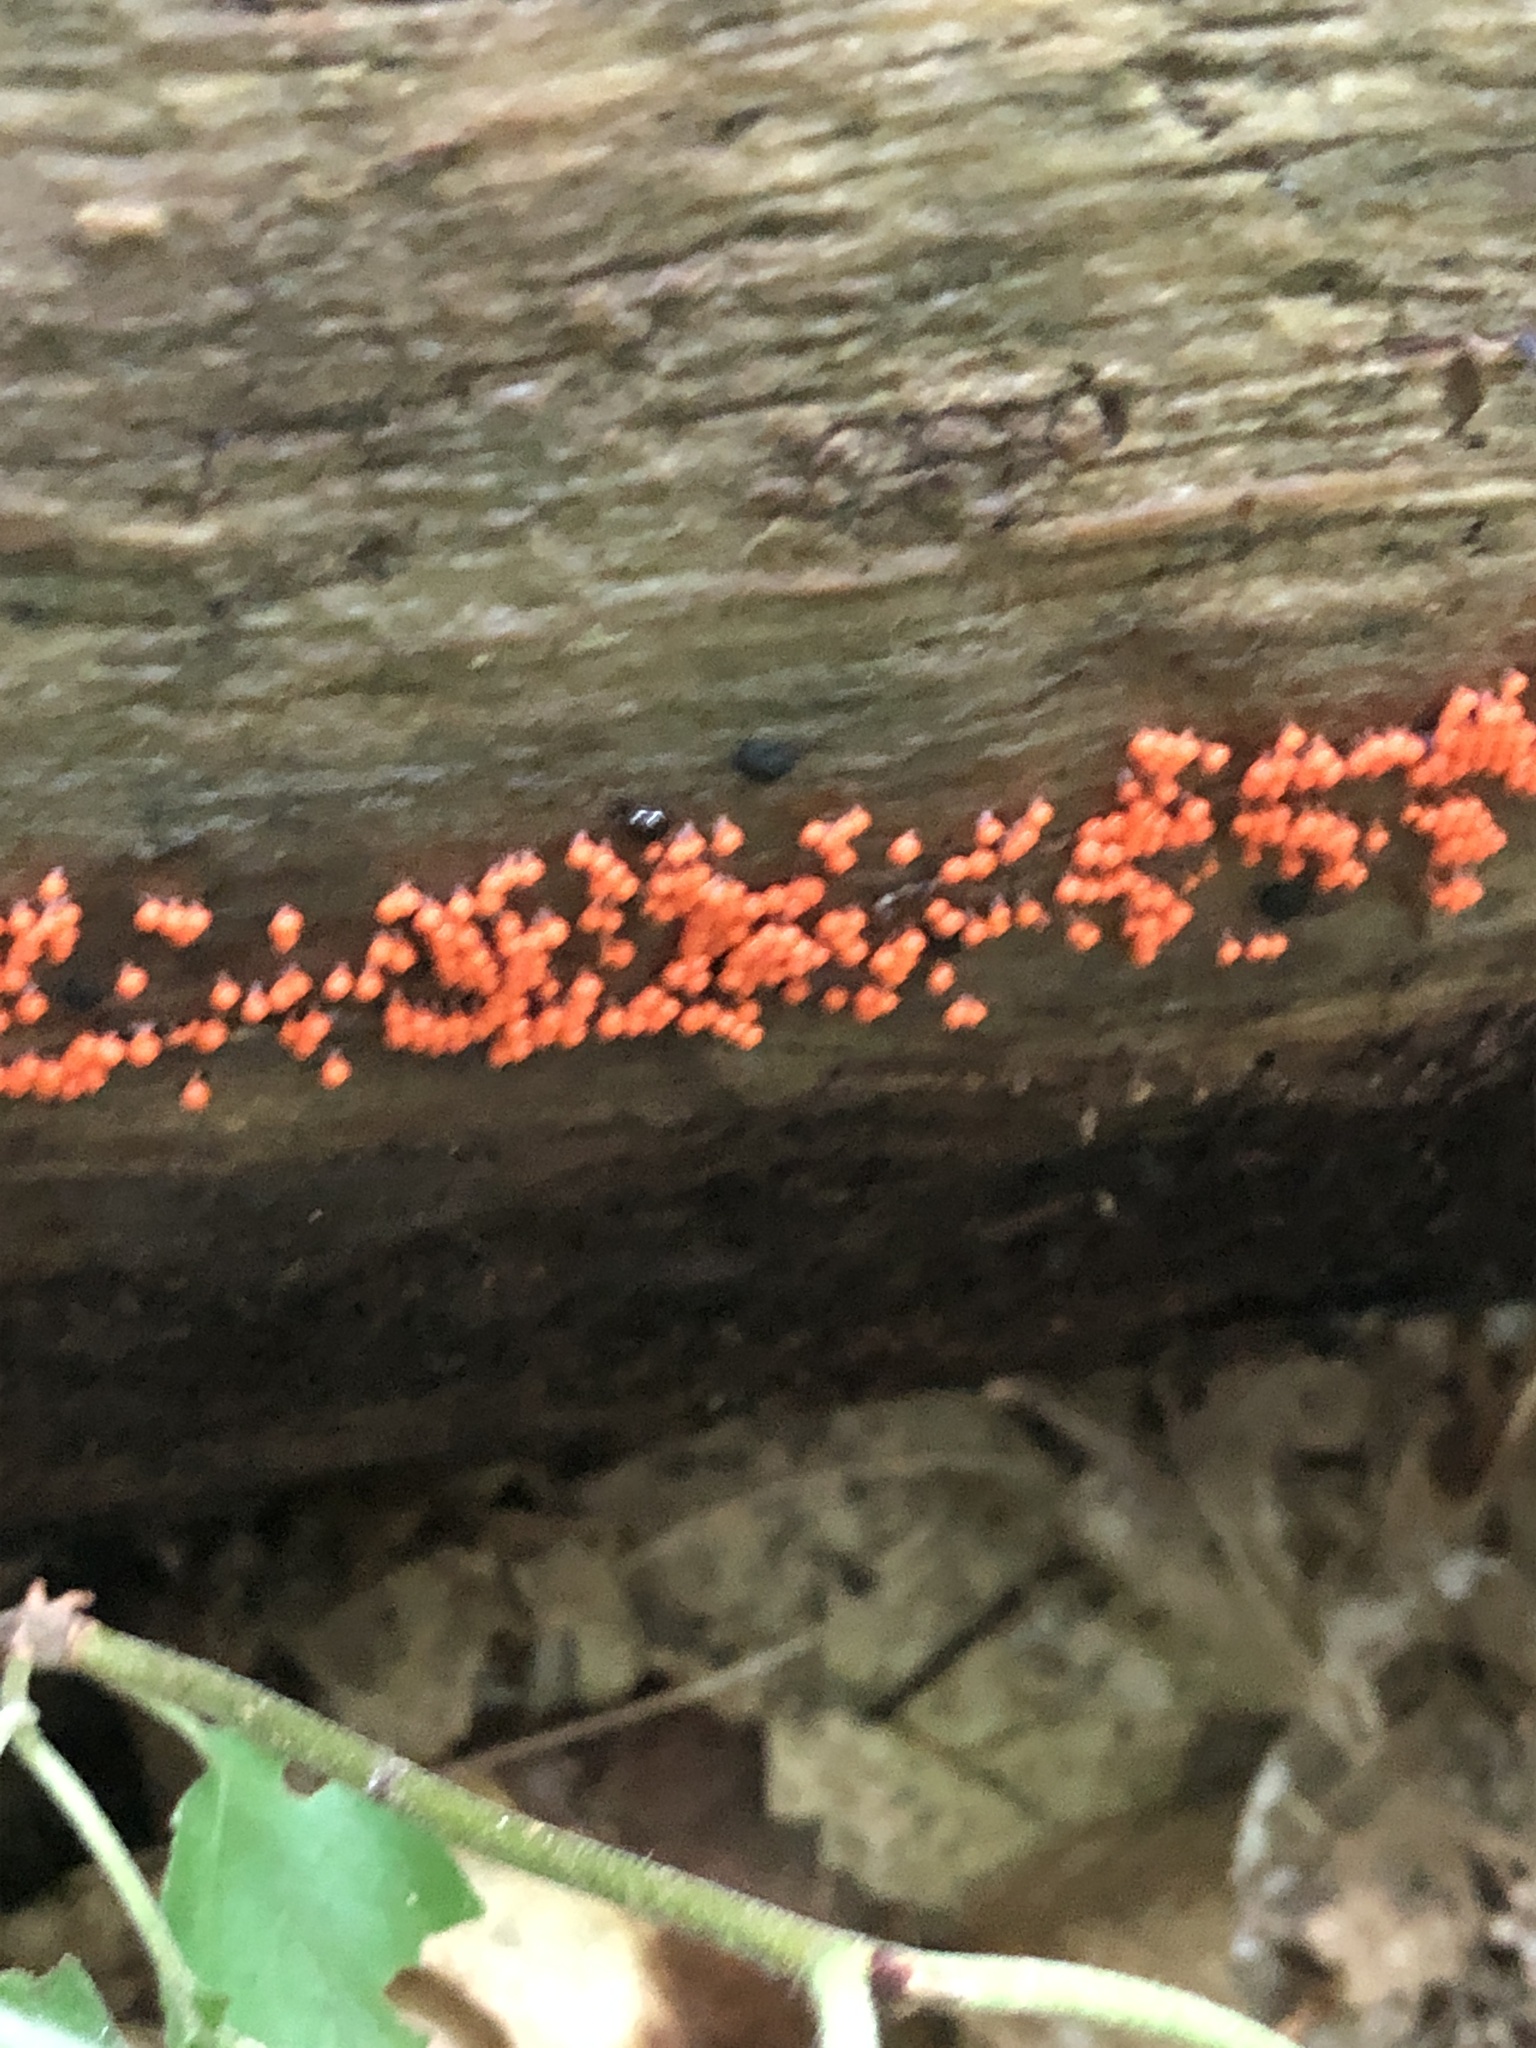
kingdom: Protozoa
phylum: Mycetozoa
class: Myxomycetes
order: Trichiales
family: Arcyriaceae
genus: Hemitrichia
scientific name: Hemitrichia decipiens
